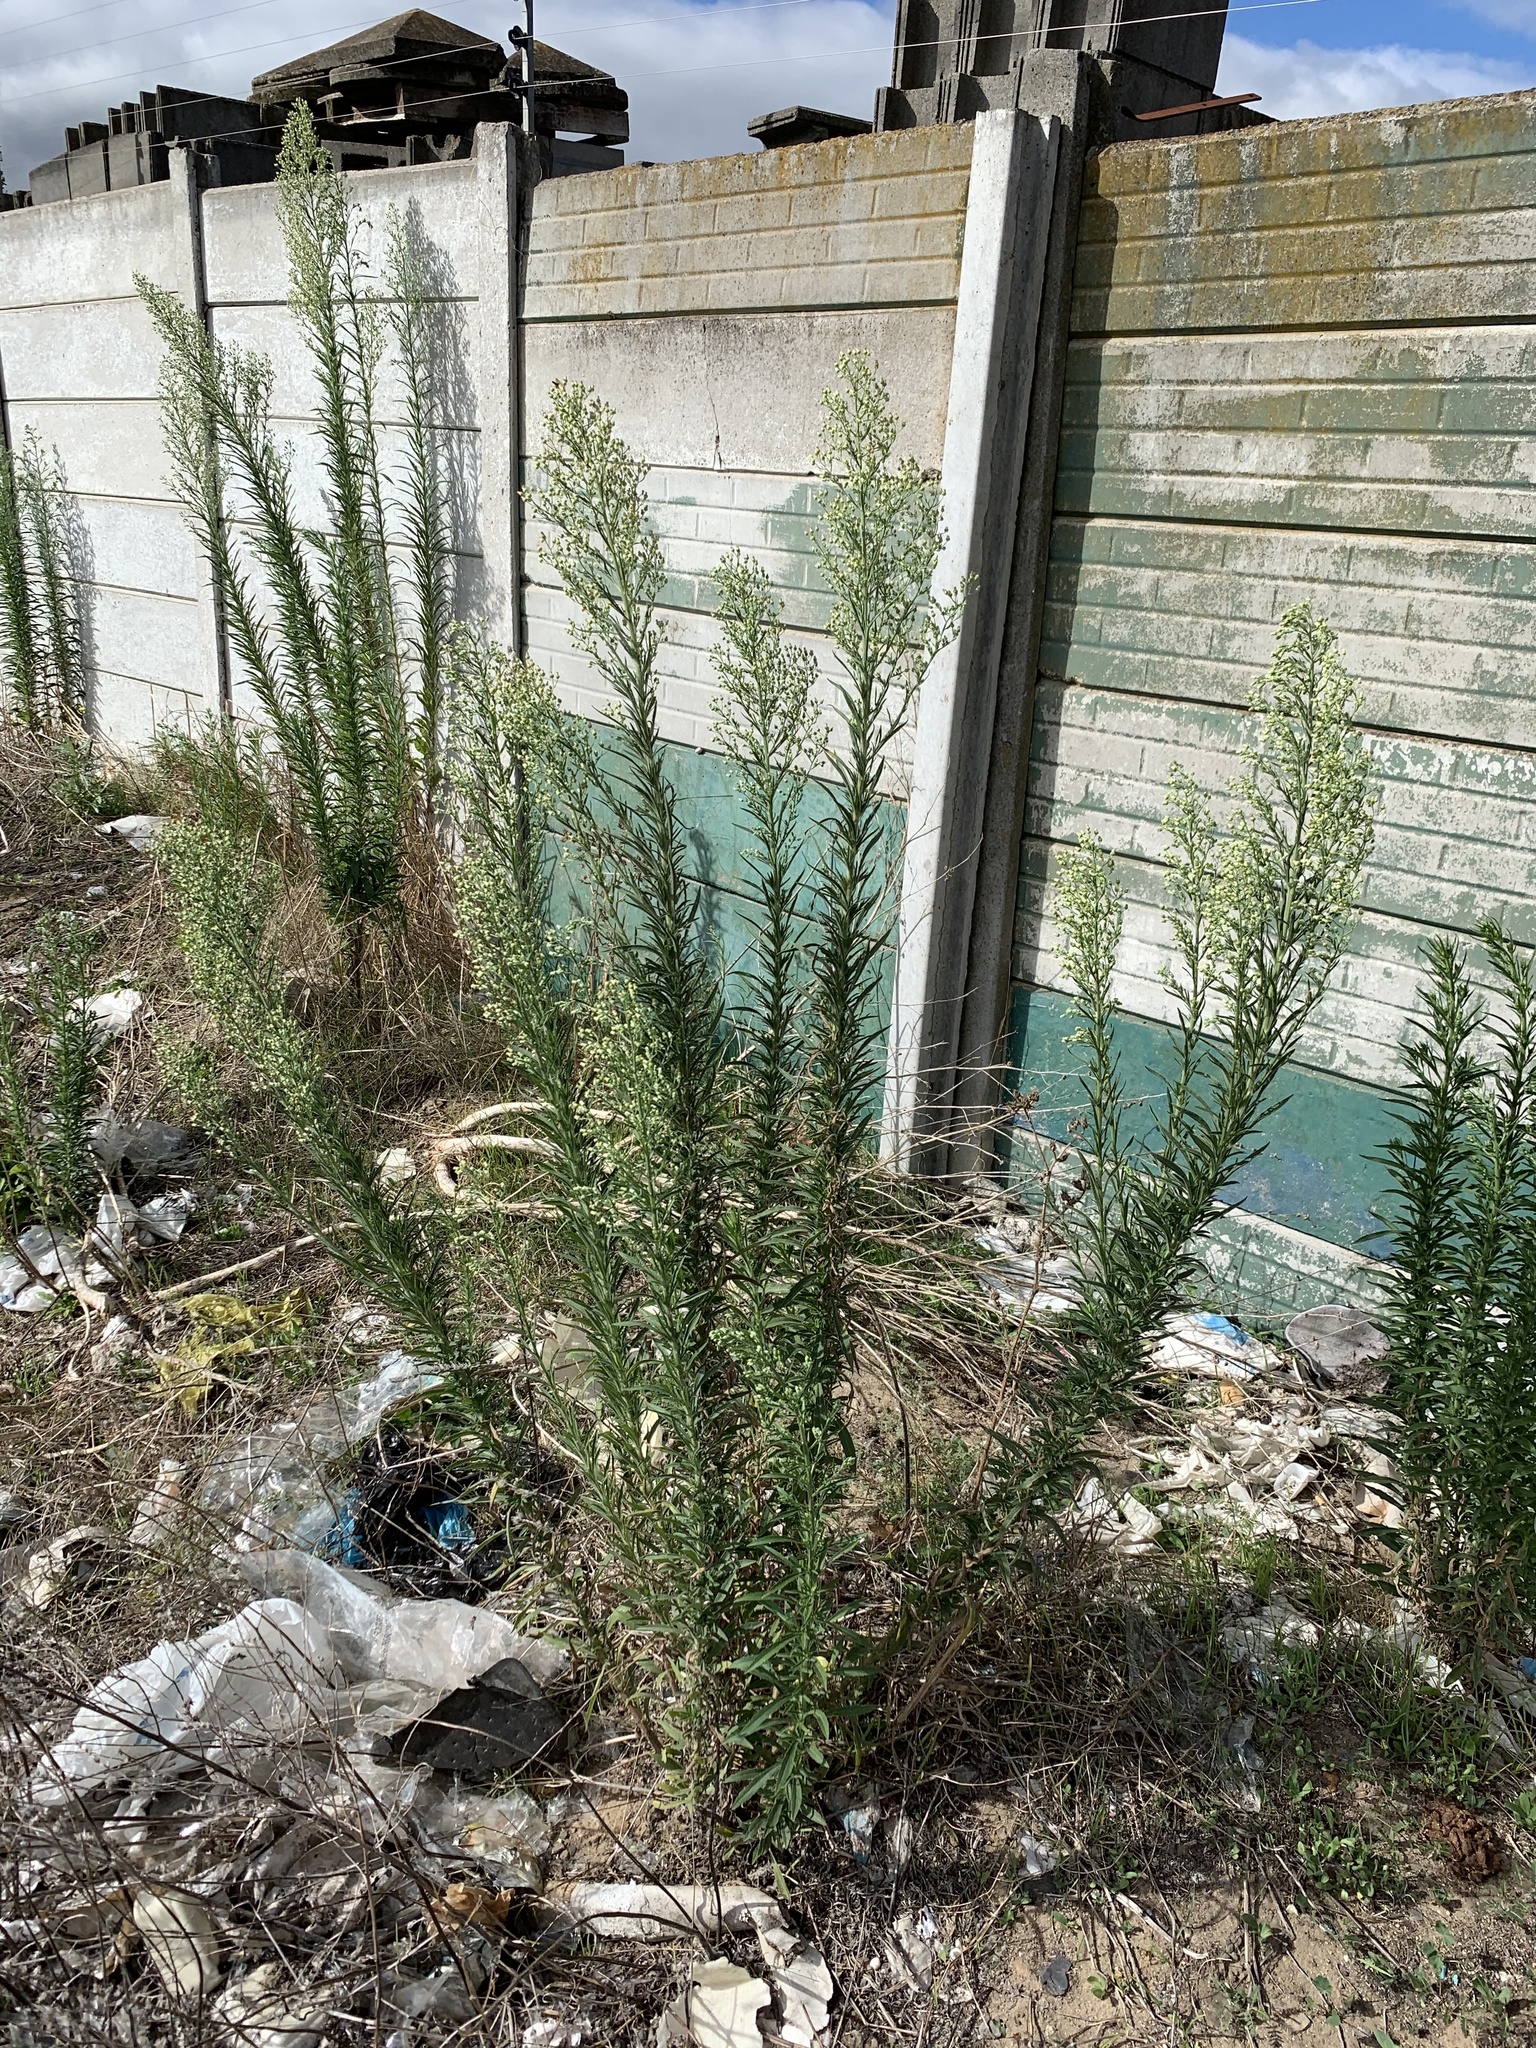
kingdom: Plantae
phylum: Tracheophyta
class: Magnoliopsida
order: Asterales
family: Asteraceae
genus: Erigeron
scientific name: Erigeron sumatrensis
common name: Daisy
